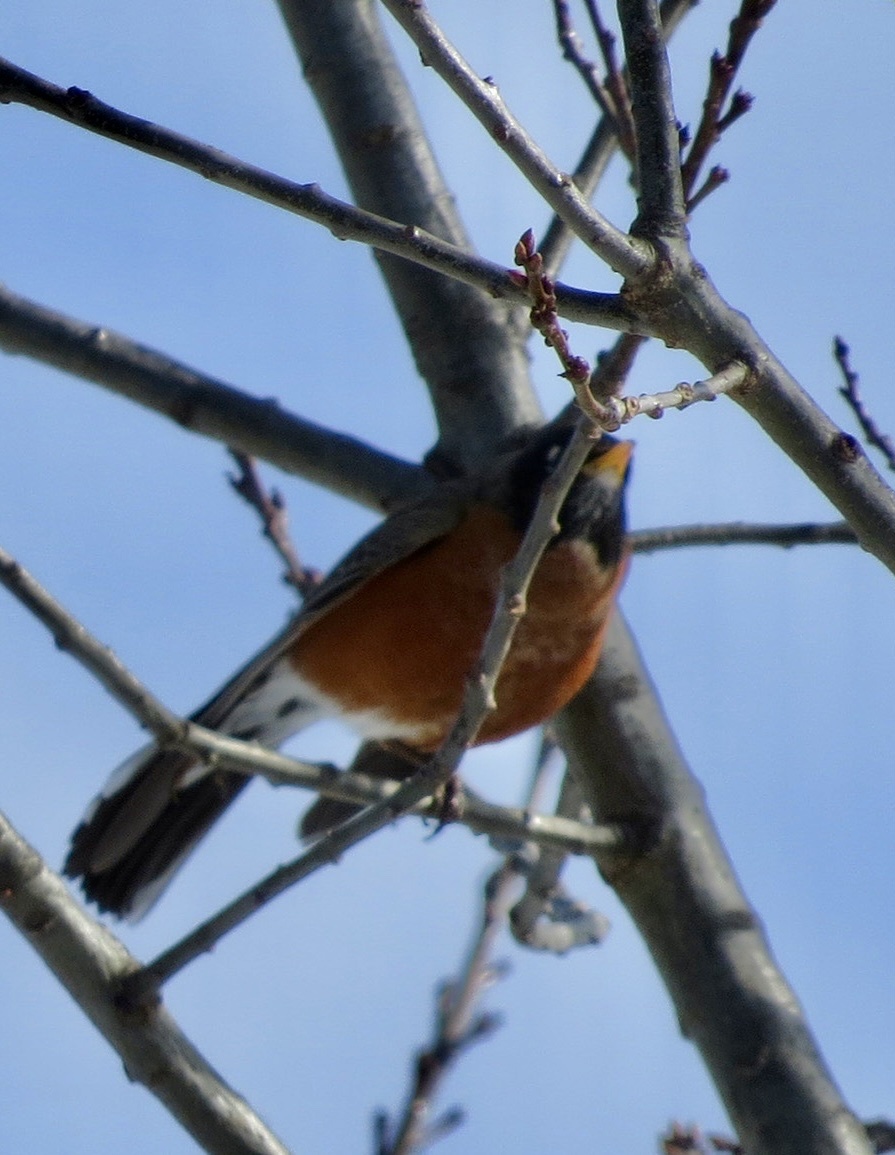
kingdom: Animalia
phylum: Chordata
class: Aves
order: Passeriformes
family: Turdidae
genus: Turdus
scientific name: Turdus migratorius
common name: American robin
